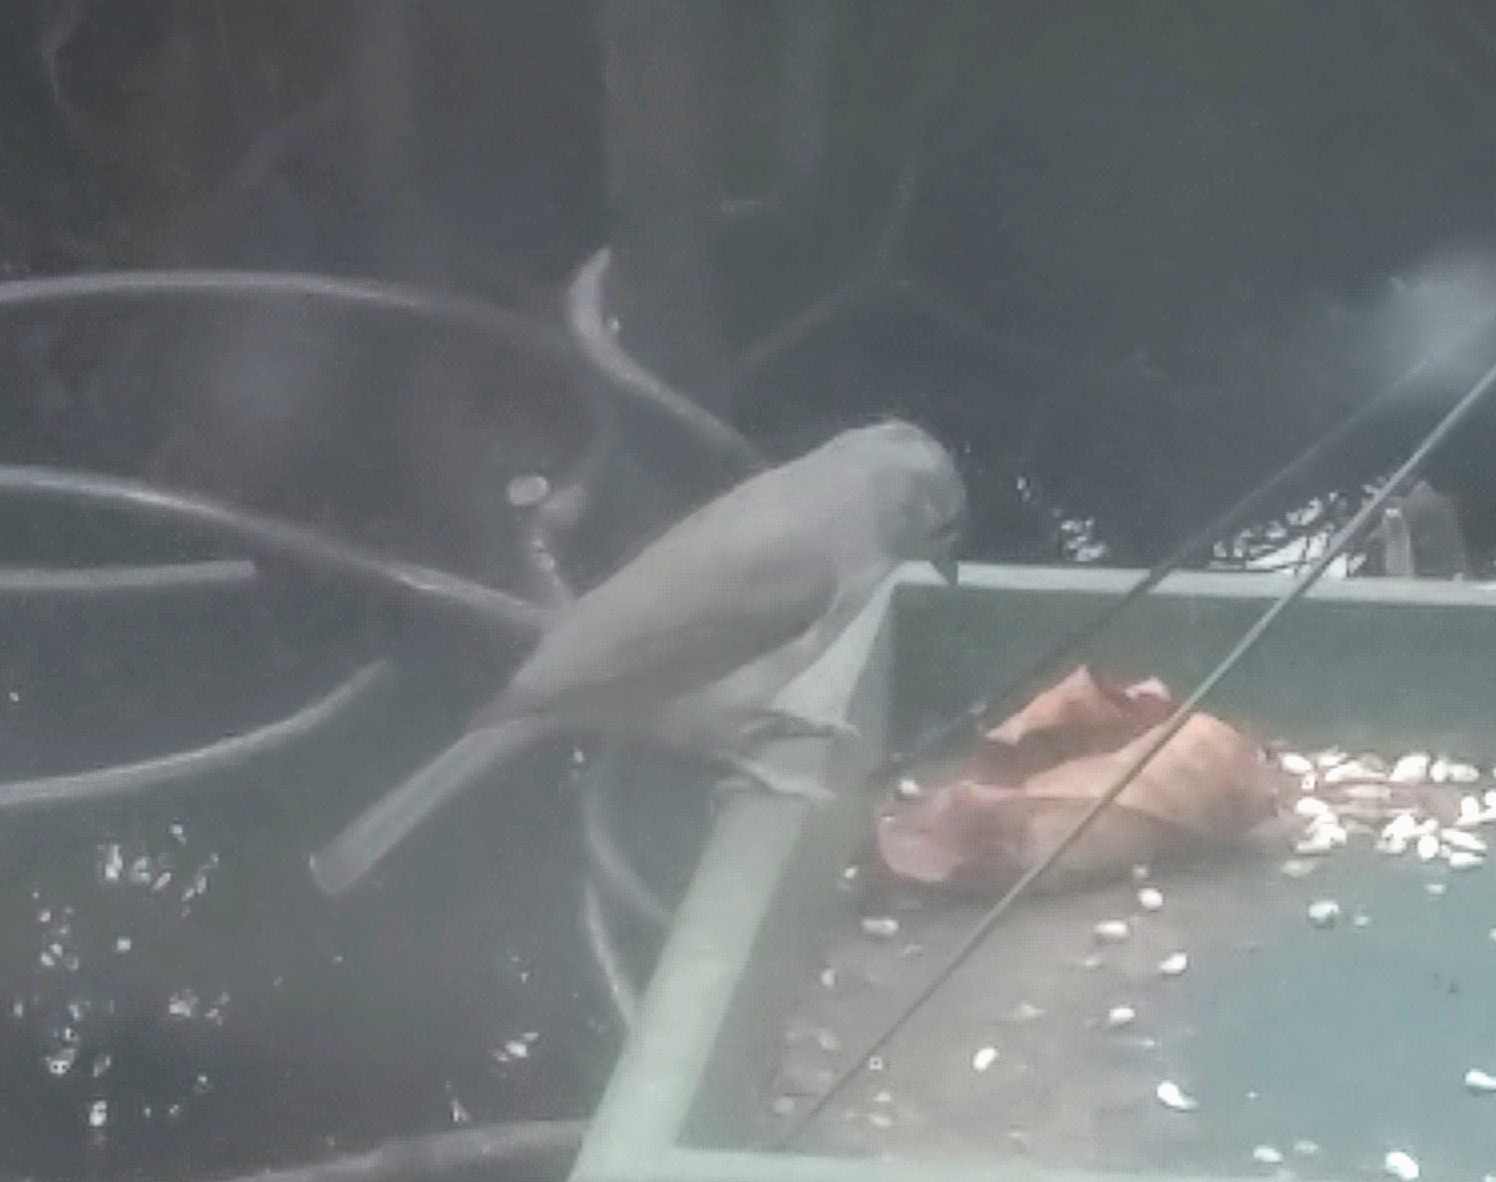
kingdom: Animalia
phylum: Chordata
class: Aves
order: Passeriformes
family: Paridae
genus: Baeolophus
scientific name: Baeolophus bicolor
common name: Tufted titmouse
